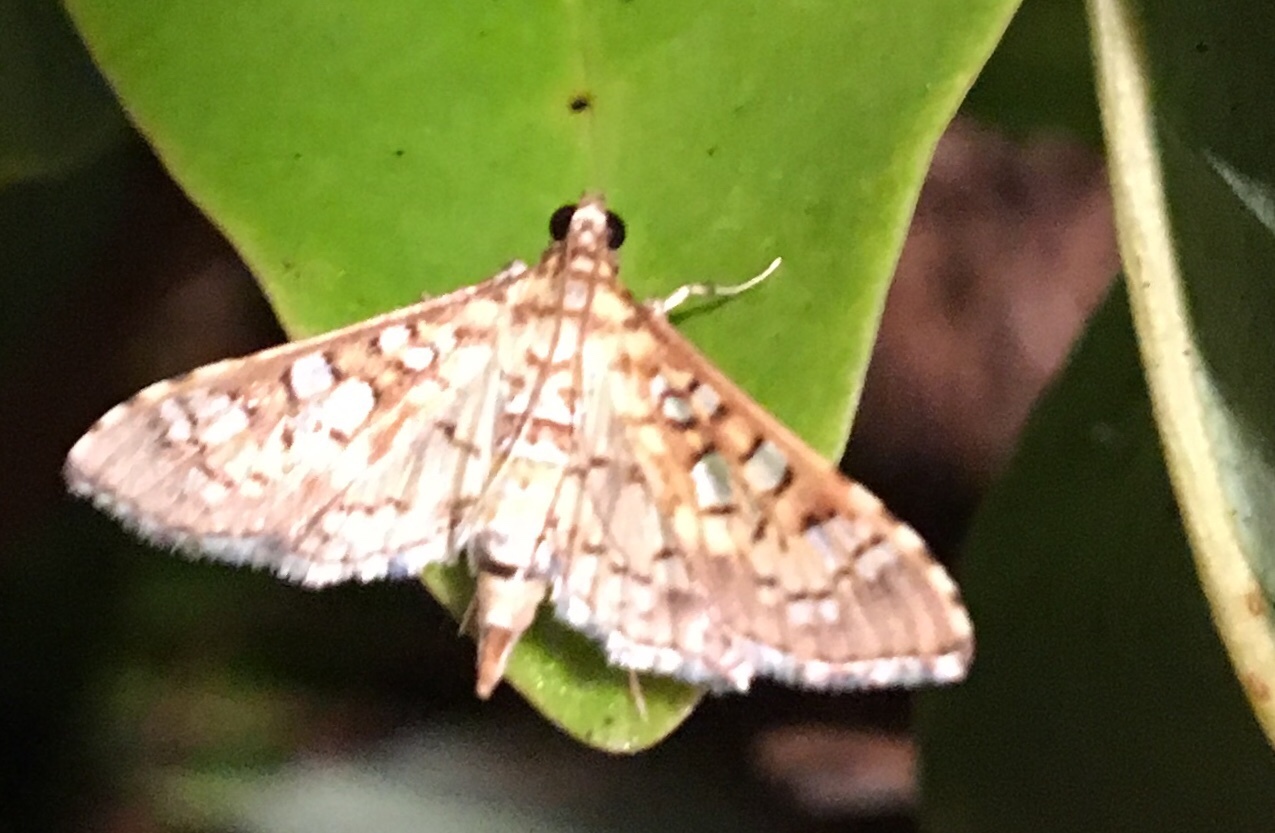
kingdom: Animalia
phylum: Arthropoda
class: Insecta
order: Lepidoptera
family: Crambidae
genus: Samea
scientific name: Samea ecclesialis
